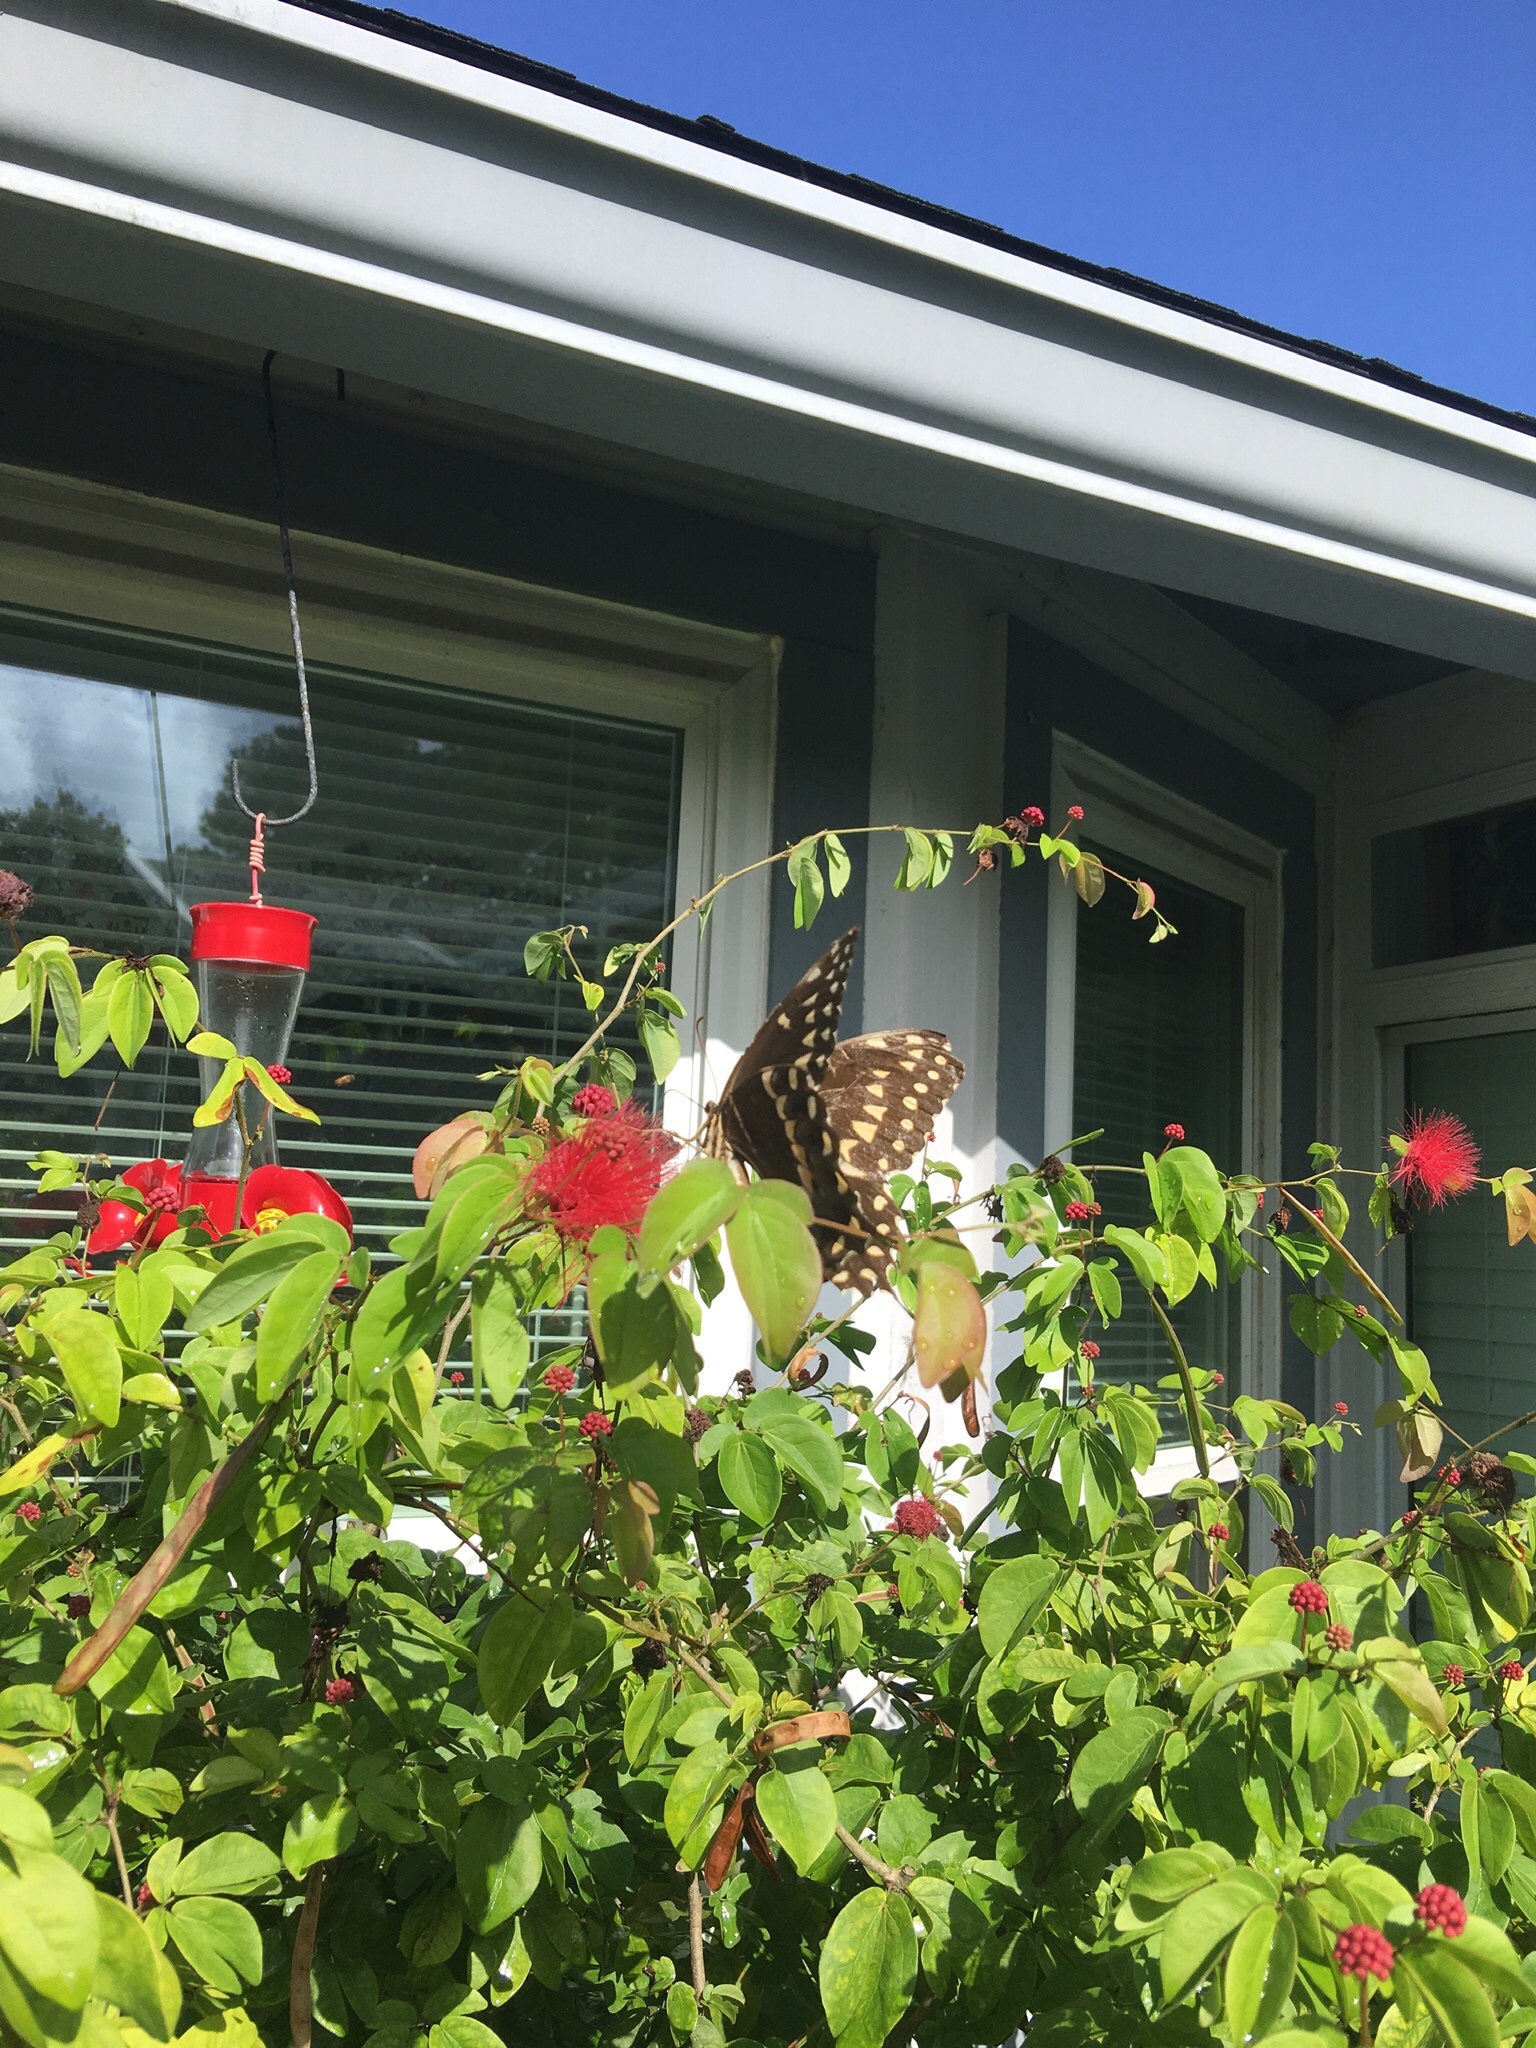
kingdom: Animalia
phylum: Arthropoda
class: Insecta
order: Lepidoptera
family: Papilionidae
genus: Papilio
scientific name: Papilio palamedes
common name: Palamedes swallowtail
